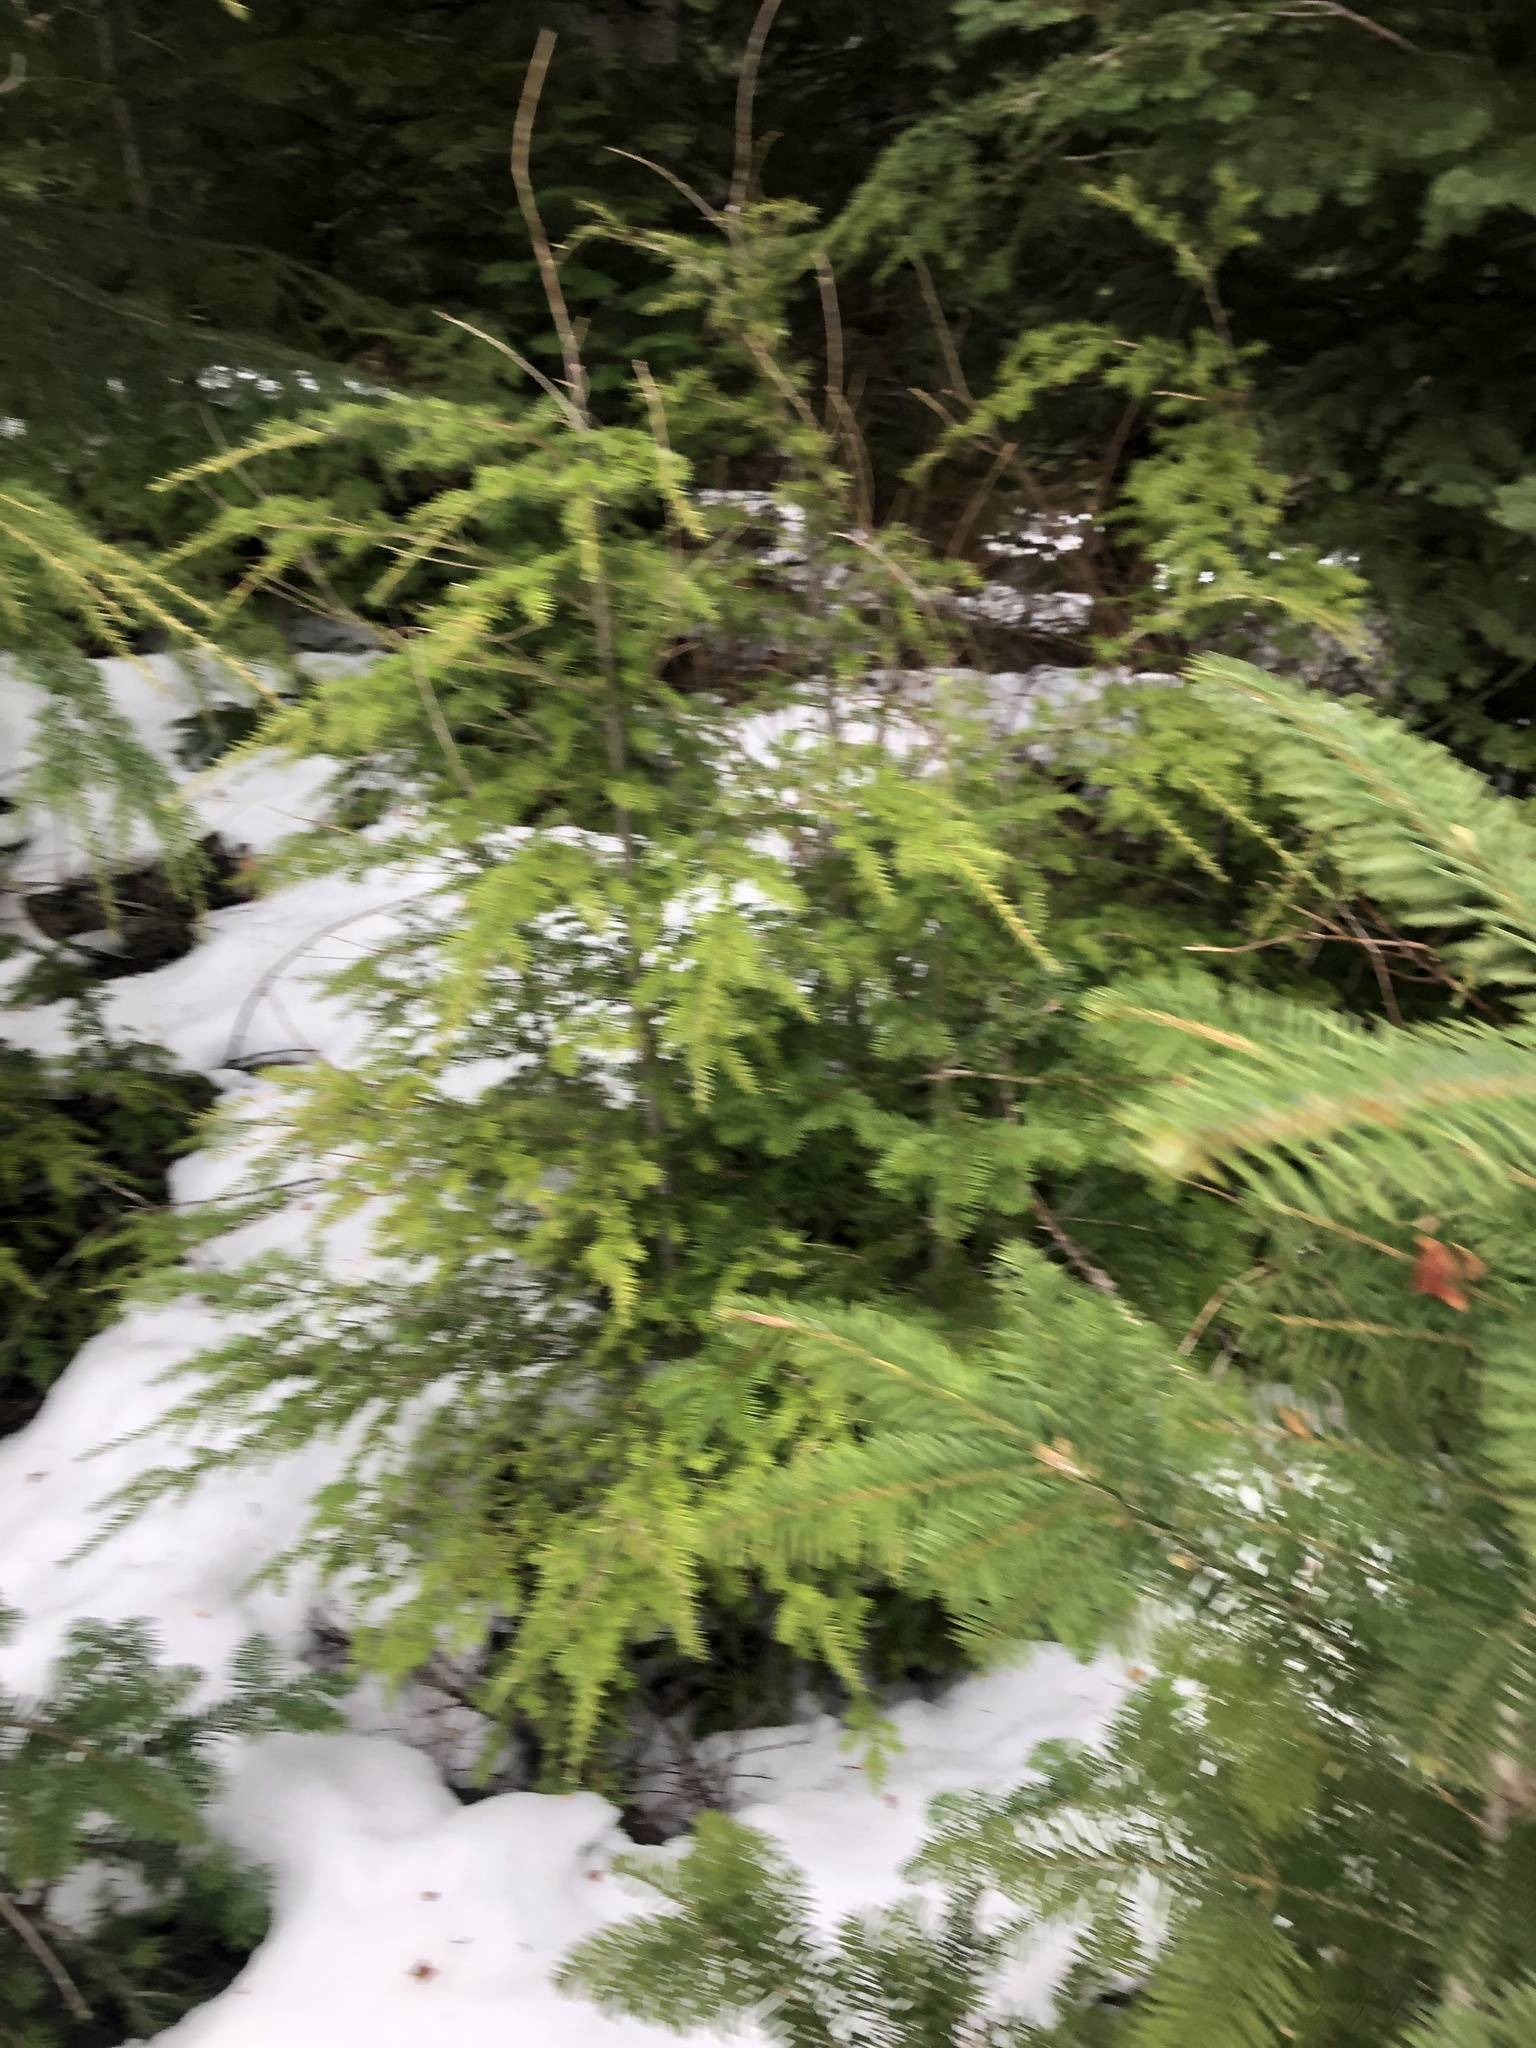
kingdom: Plantae
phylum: Tracheophyta
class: Pinopsida
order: Pinales
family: Pinaceae
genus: Tsuga
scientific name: Tsuga heterophylla
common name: Western hemlock
